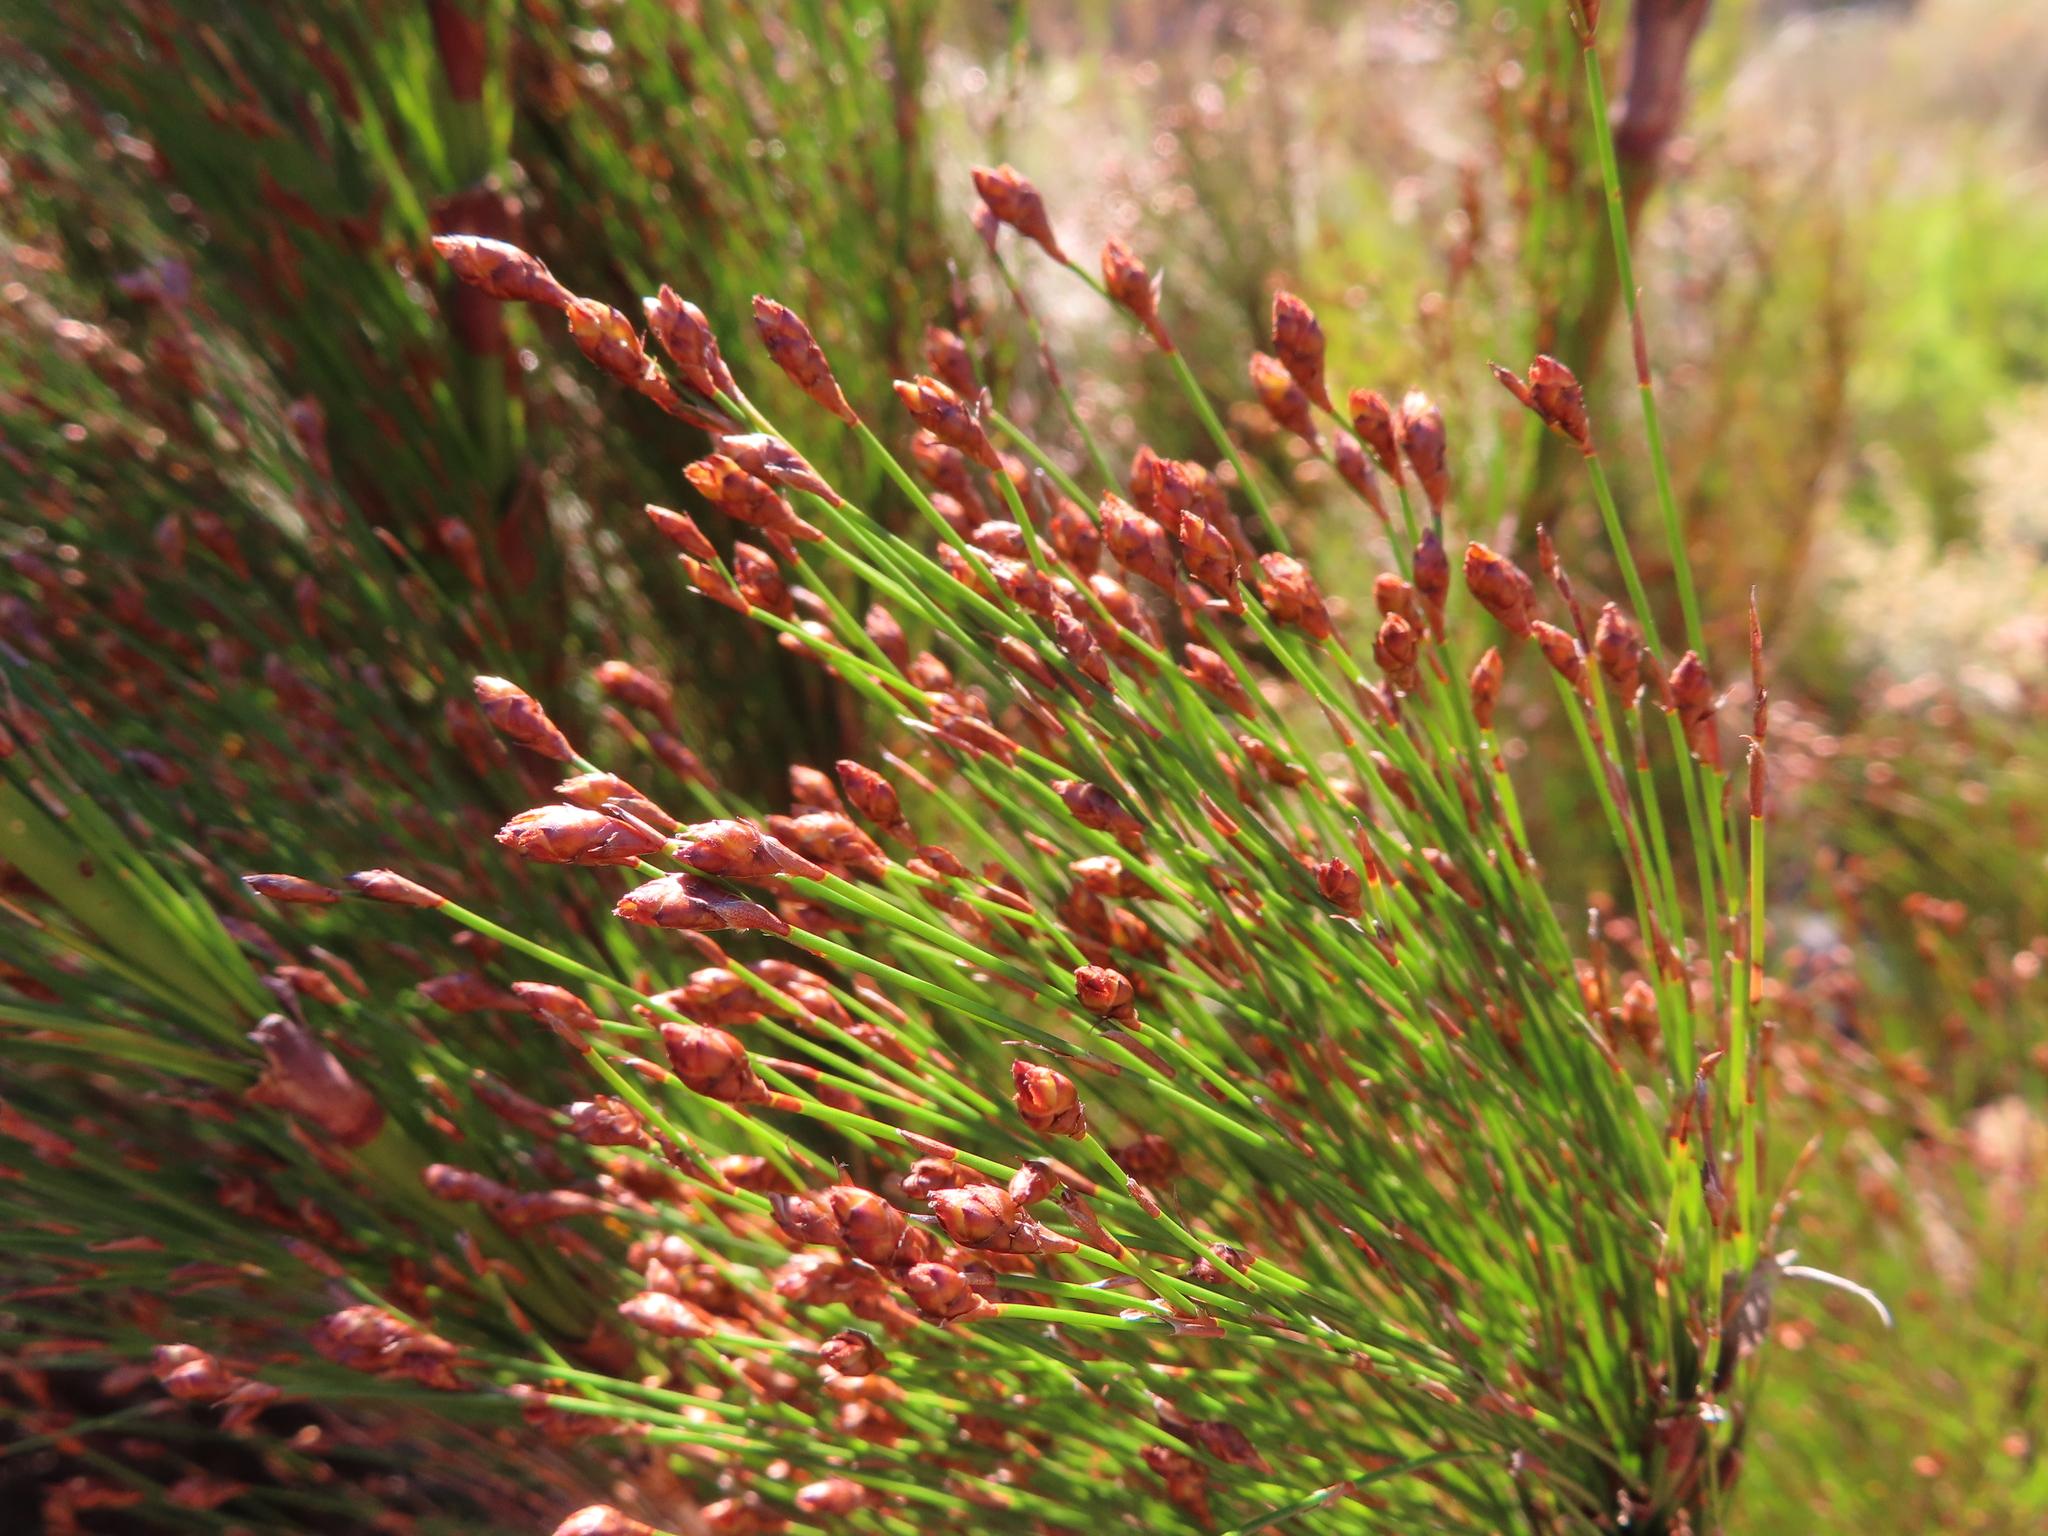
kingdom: Plantae
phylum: Tracheophyta
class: Liliopsida
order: Poales
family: Restionaceae
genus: Restio
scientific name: Restio paniculatus
